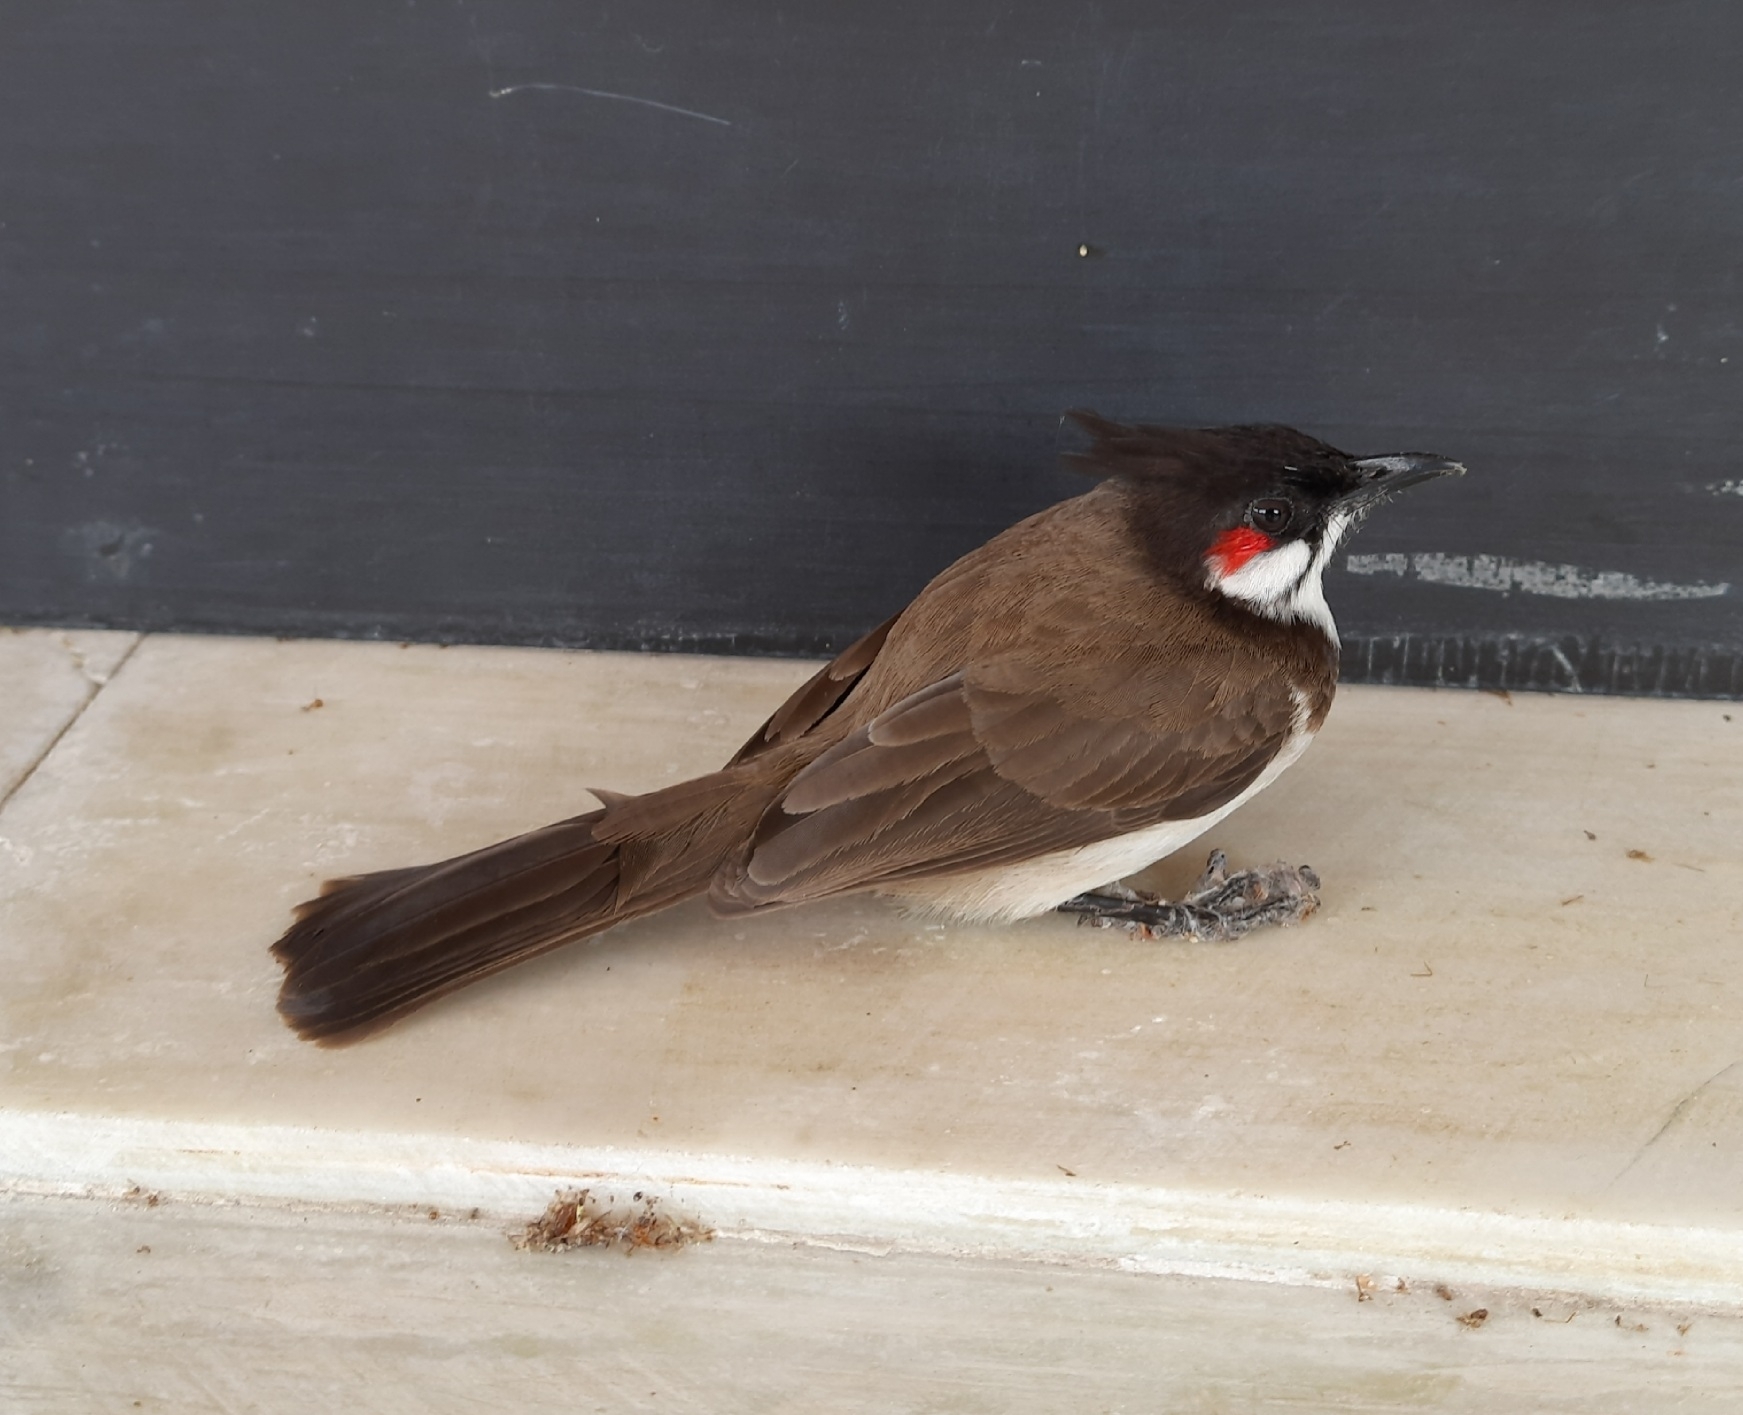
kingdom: Animalia
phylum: Chordata
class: Aves
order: Passeriformes
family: Pycnonotidae
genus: Pycnonotus
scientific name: Pycnonotus jocosus
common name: Red-whiskered bulbul
